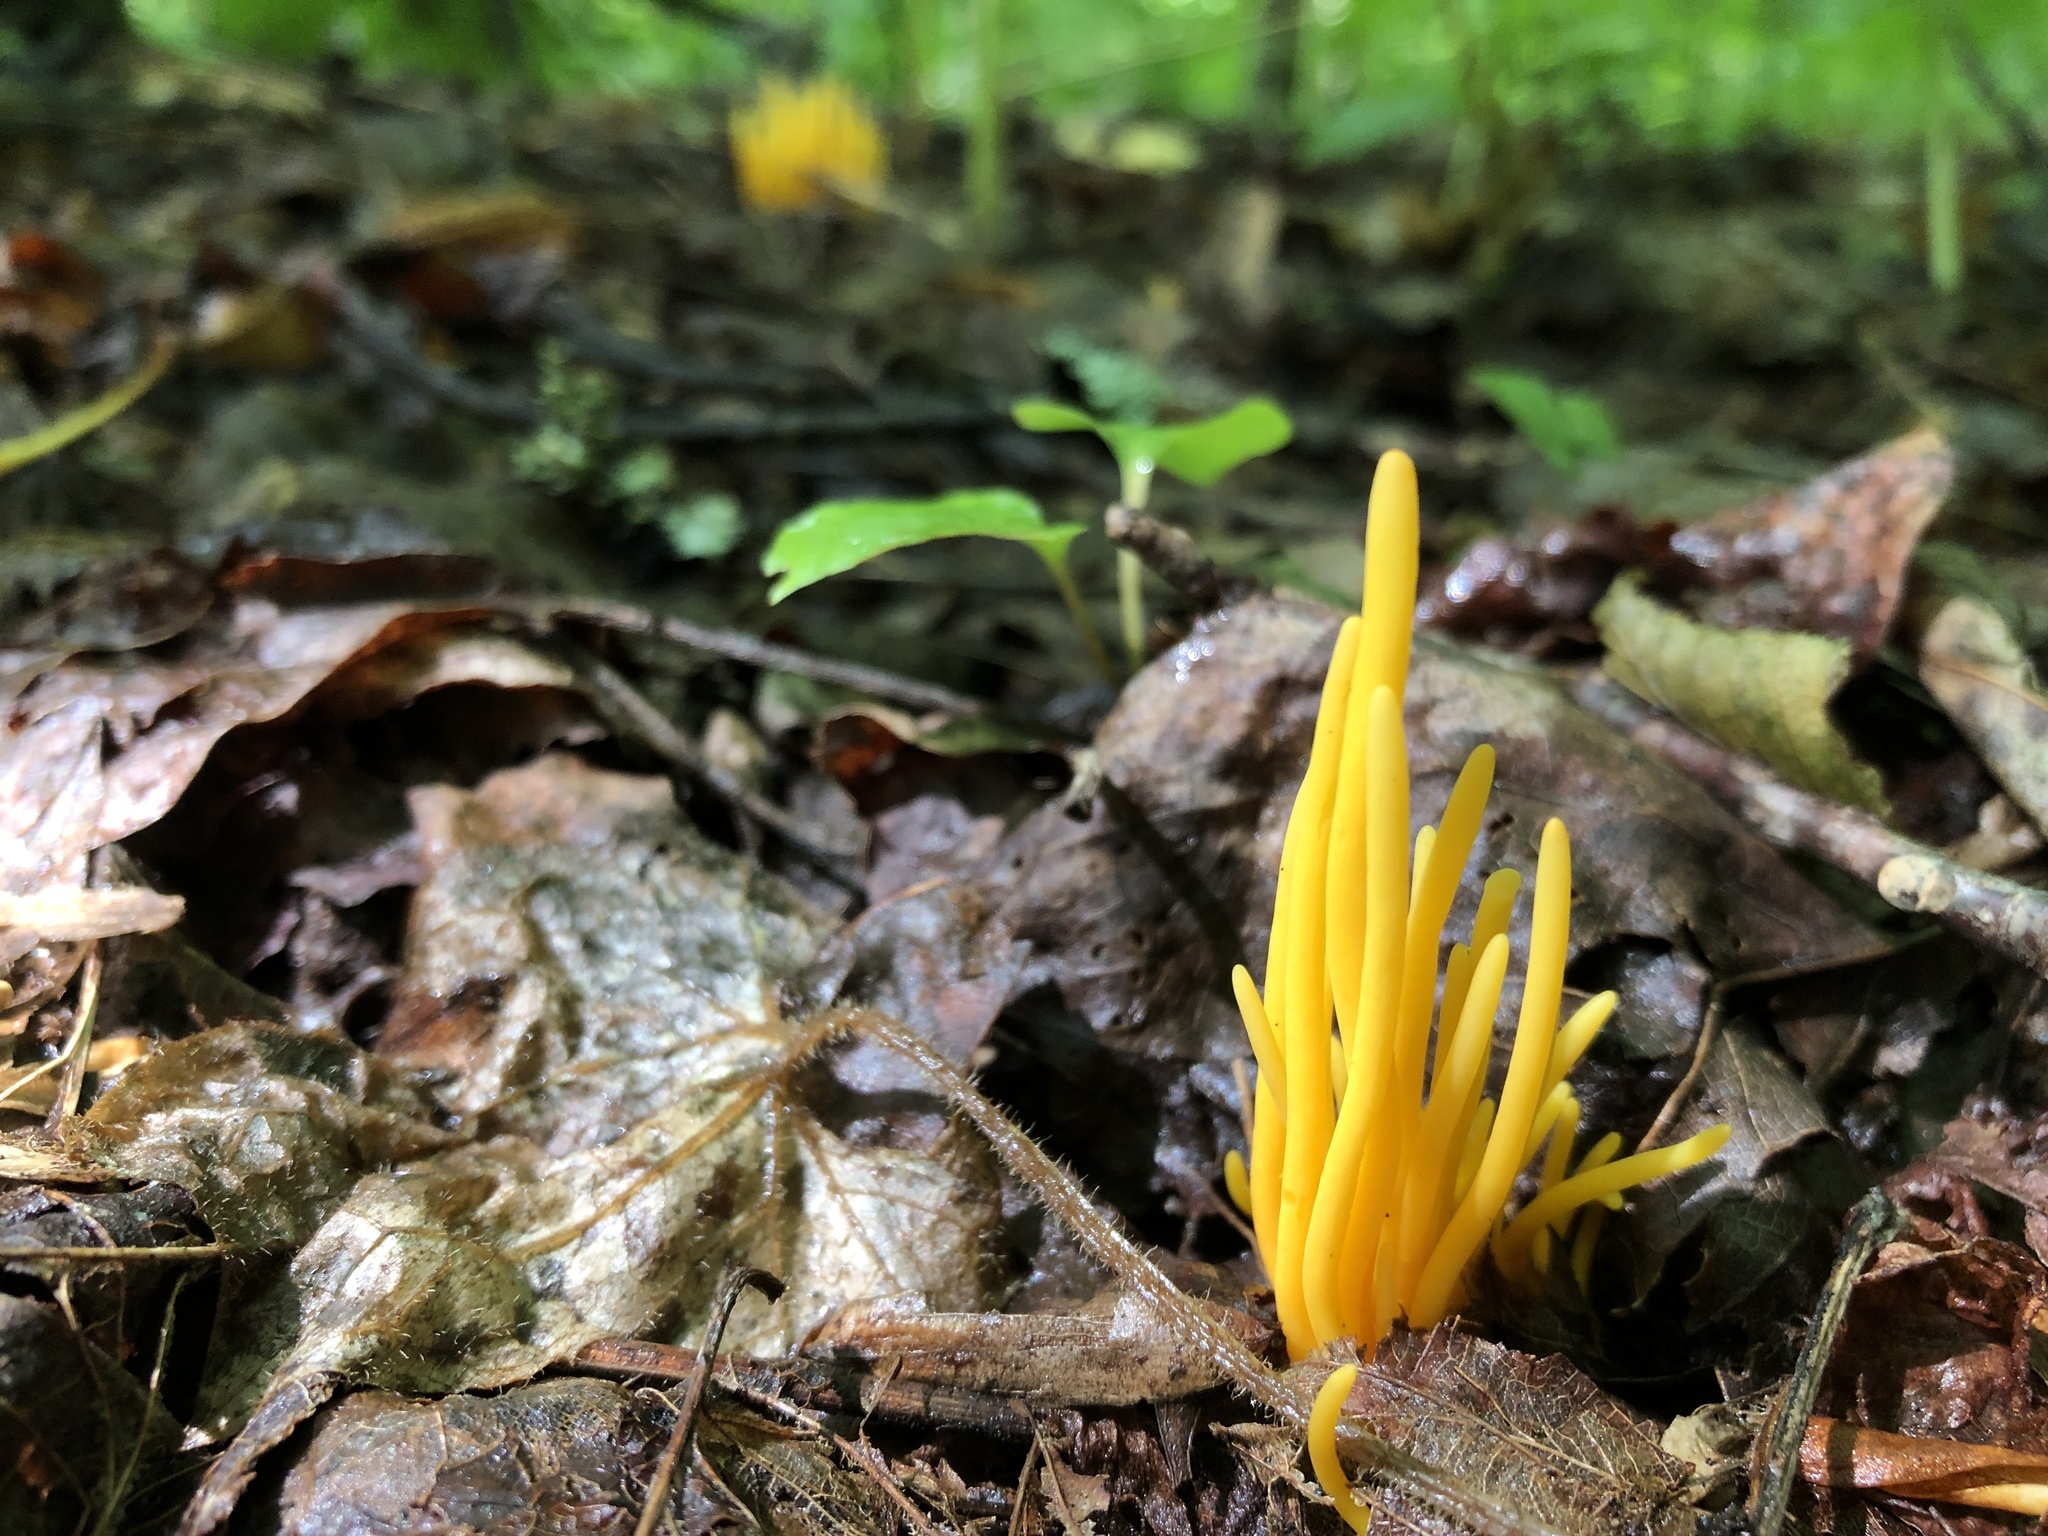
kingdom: Fungi
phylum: Basidiomycota
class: Agaricomycetes
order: Agaricales
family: Clavariaceae
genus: Clavulinopsis
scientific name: Clavulinopsis fusiformis
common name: Golden spindles
